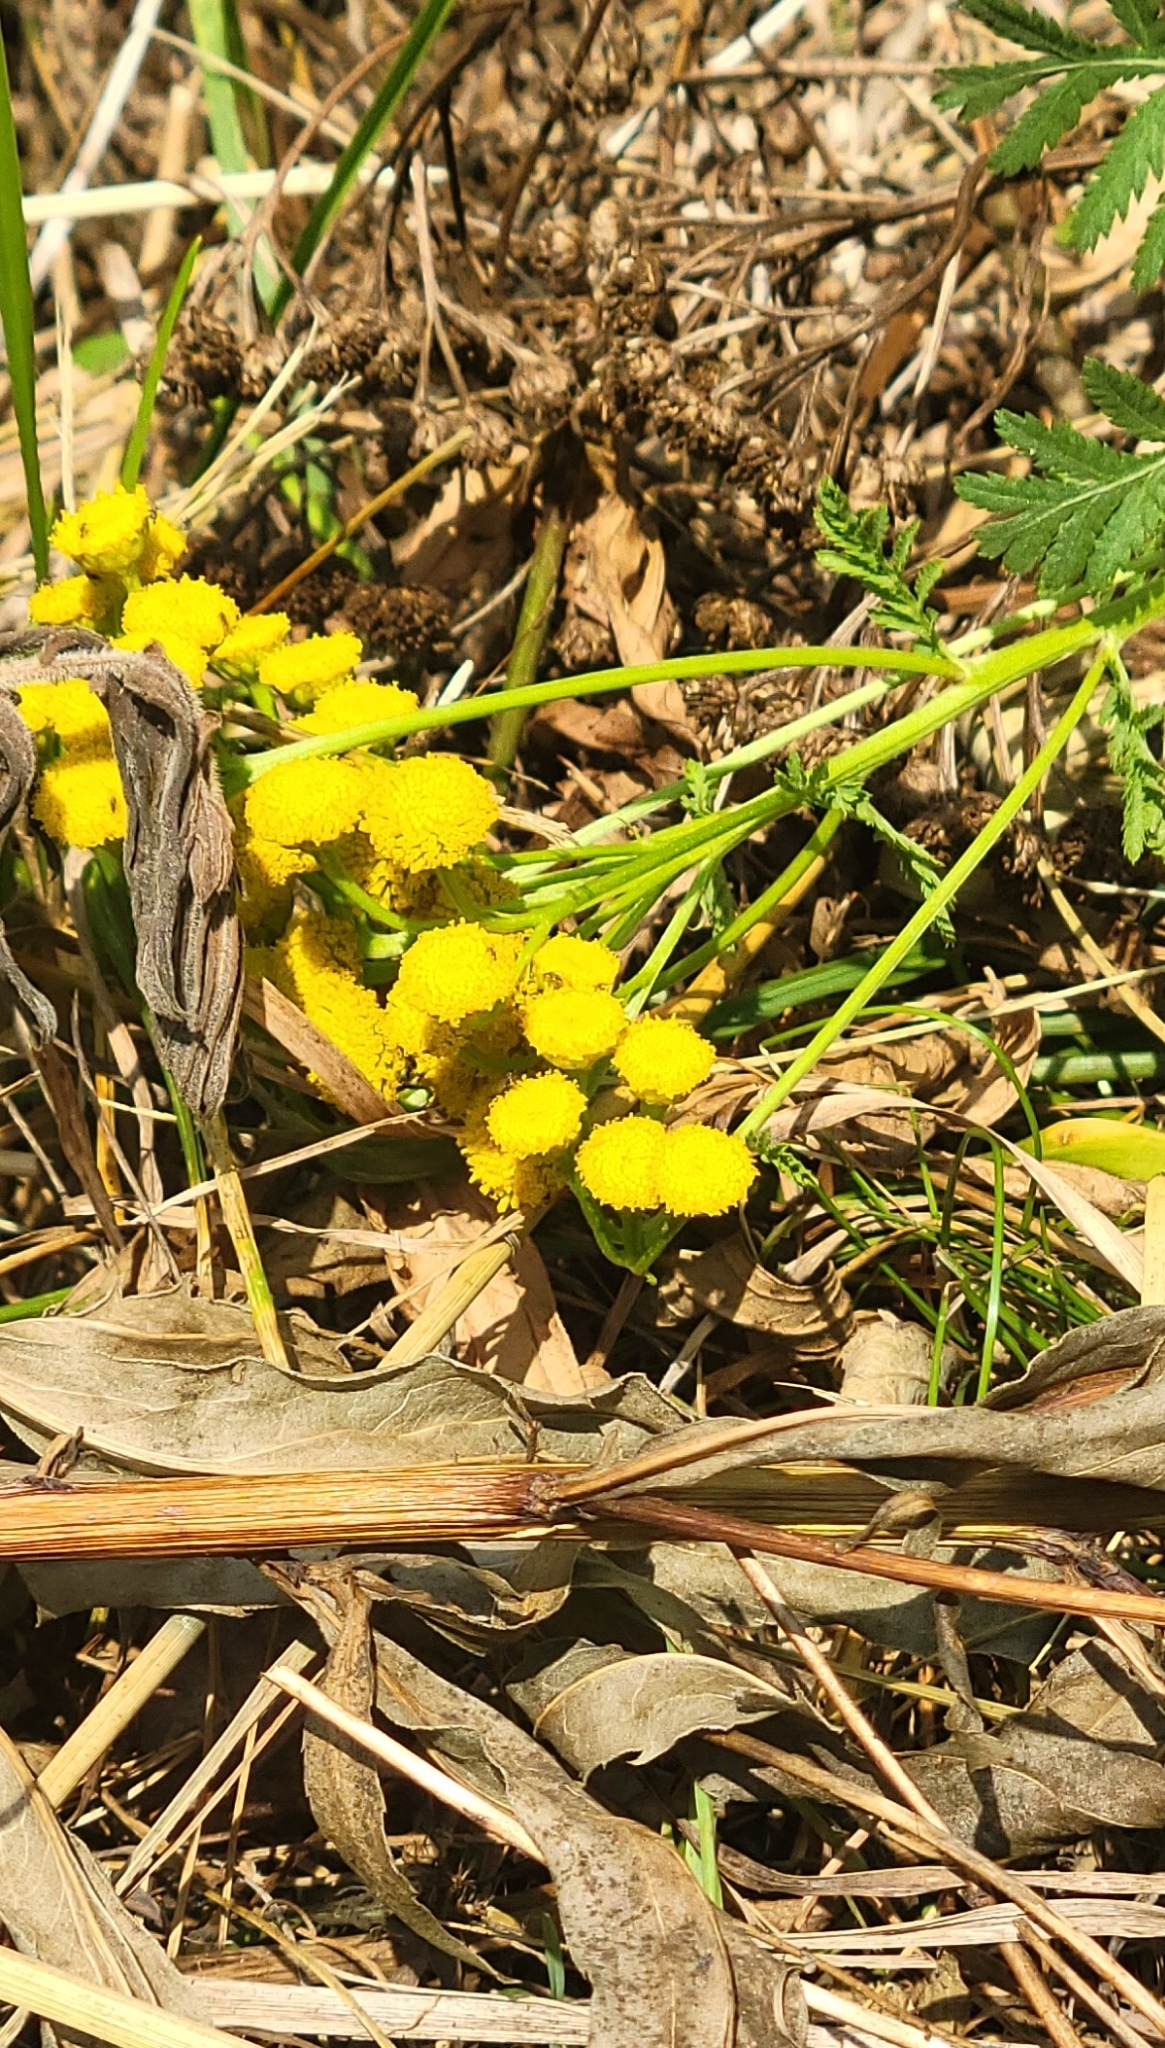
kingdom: Plantae
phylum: Tracheophyta
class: Magnoliopsida
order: Asterales
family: Asteraceae
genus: Tanacetum
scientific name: Tanacetum vulgare
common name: Common tansy
